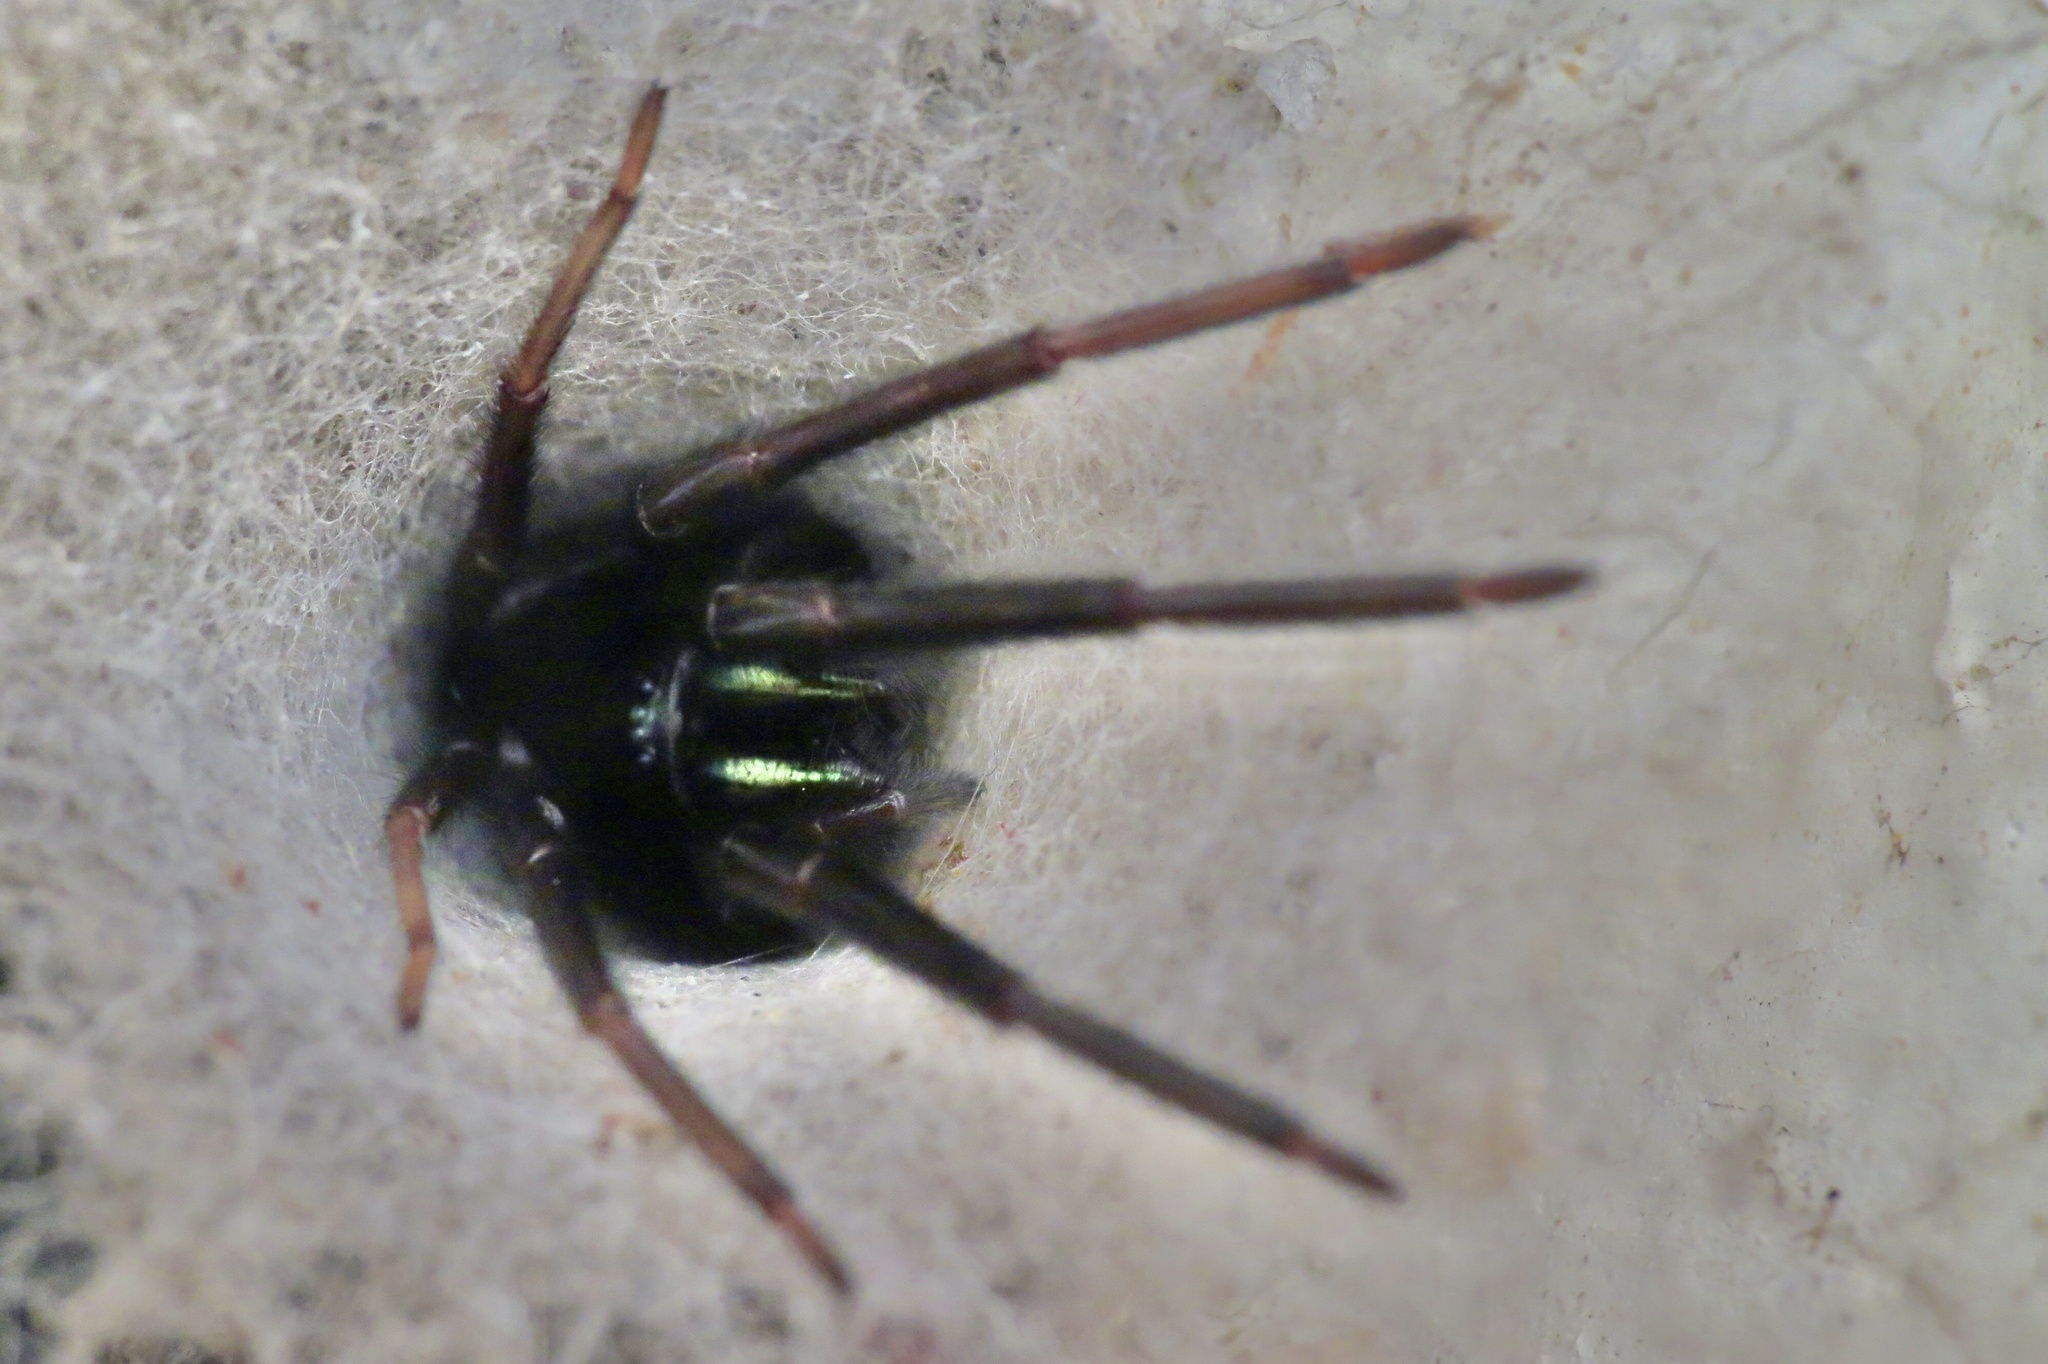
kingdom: Animalia
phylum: Arthropoda
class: Arachnida
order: Araneae
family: Segestriidae
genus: Segestria
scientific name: Segestria florentina
